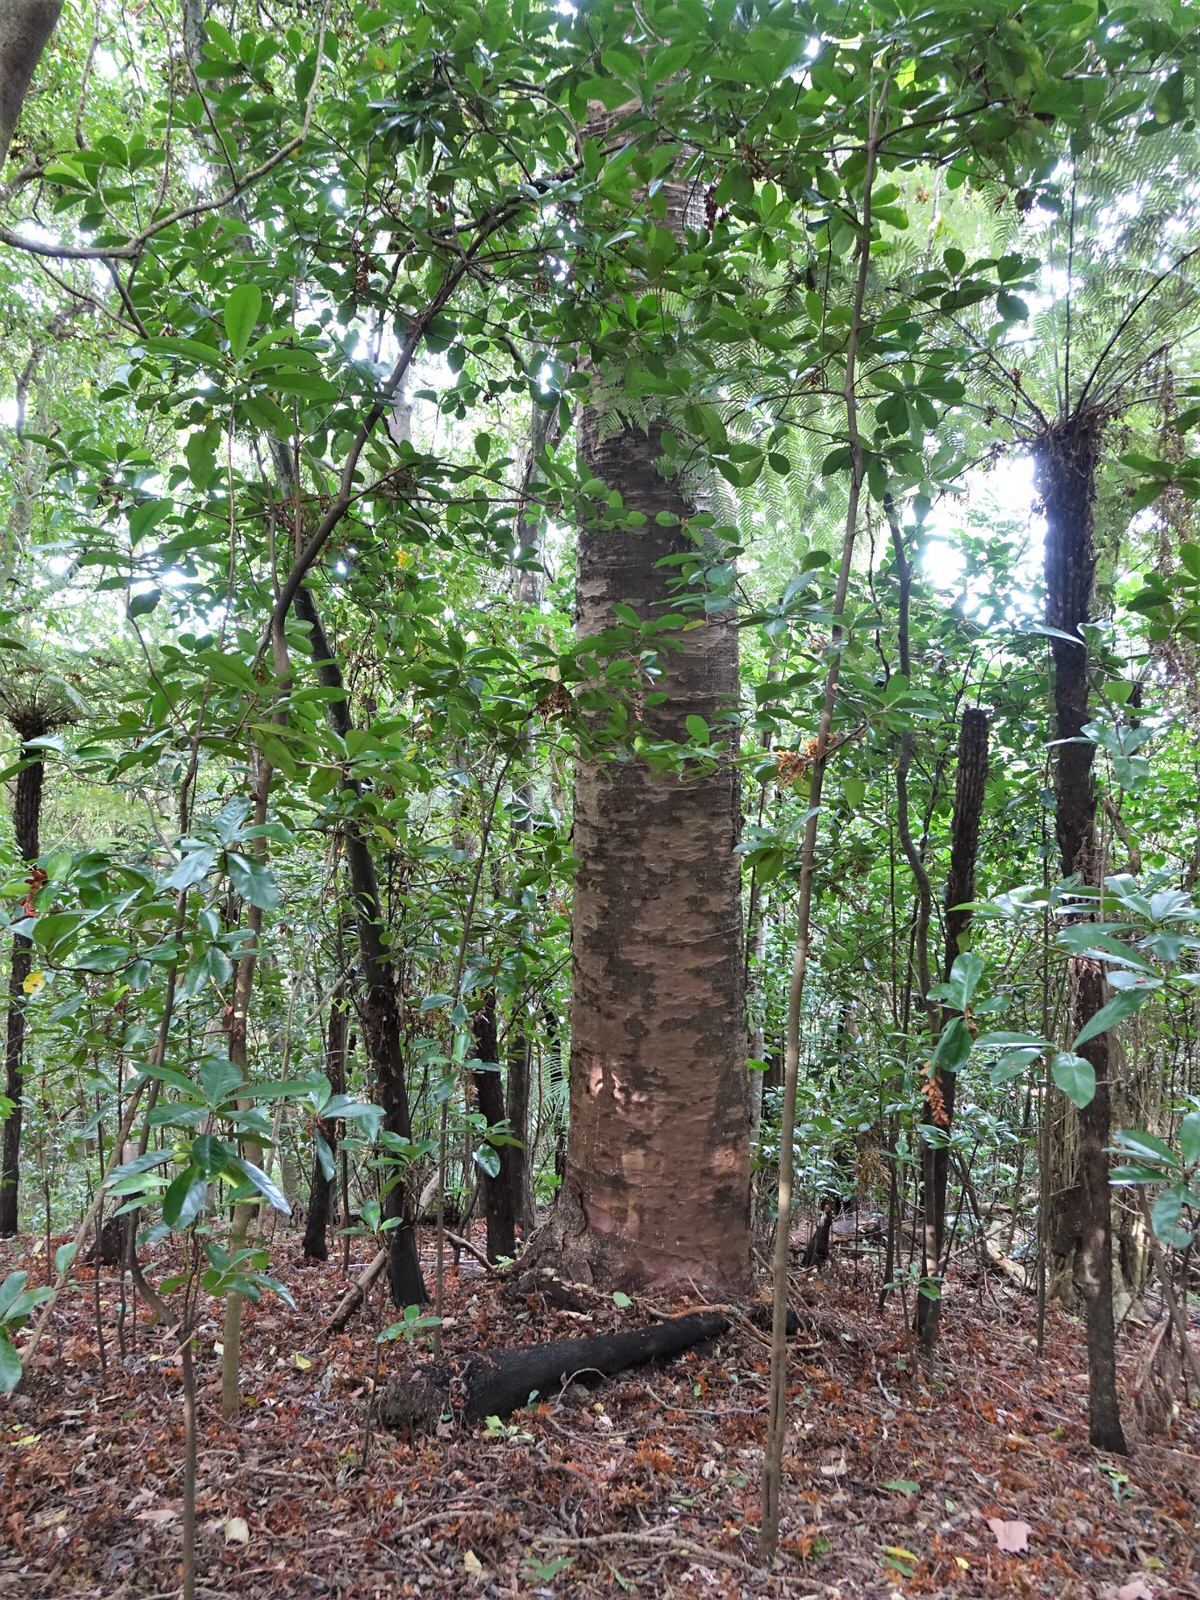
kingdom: Plantae
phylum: Tracheophyta
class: Pinopsida
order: Pinales
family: Araucariaceae
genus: Agathis
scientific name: Agathis australis
